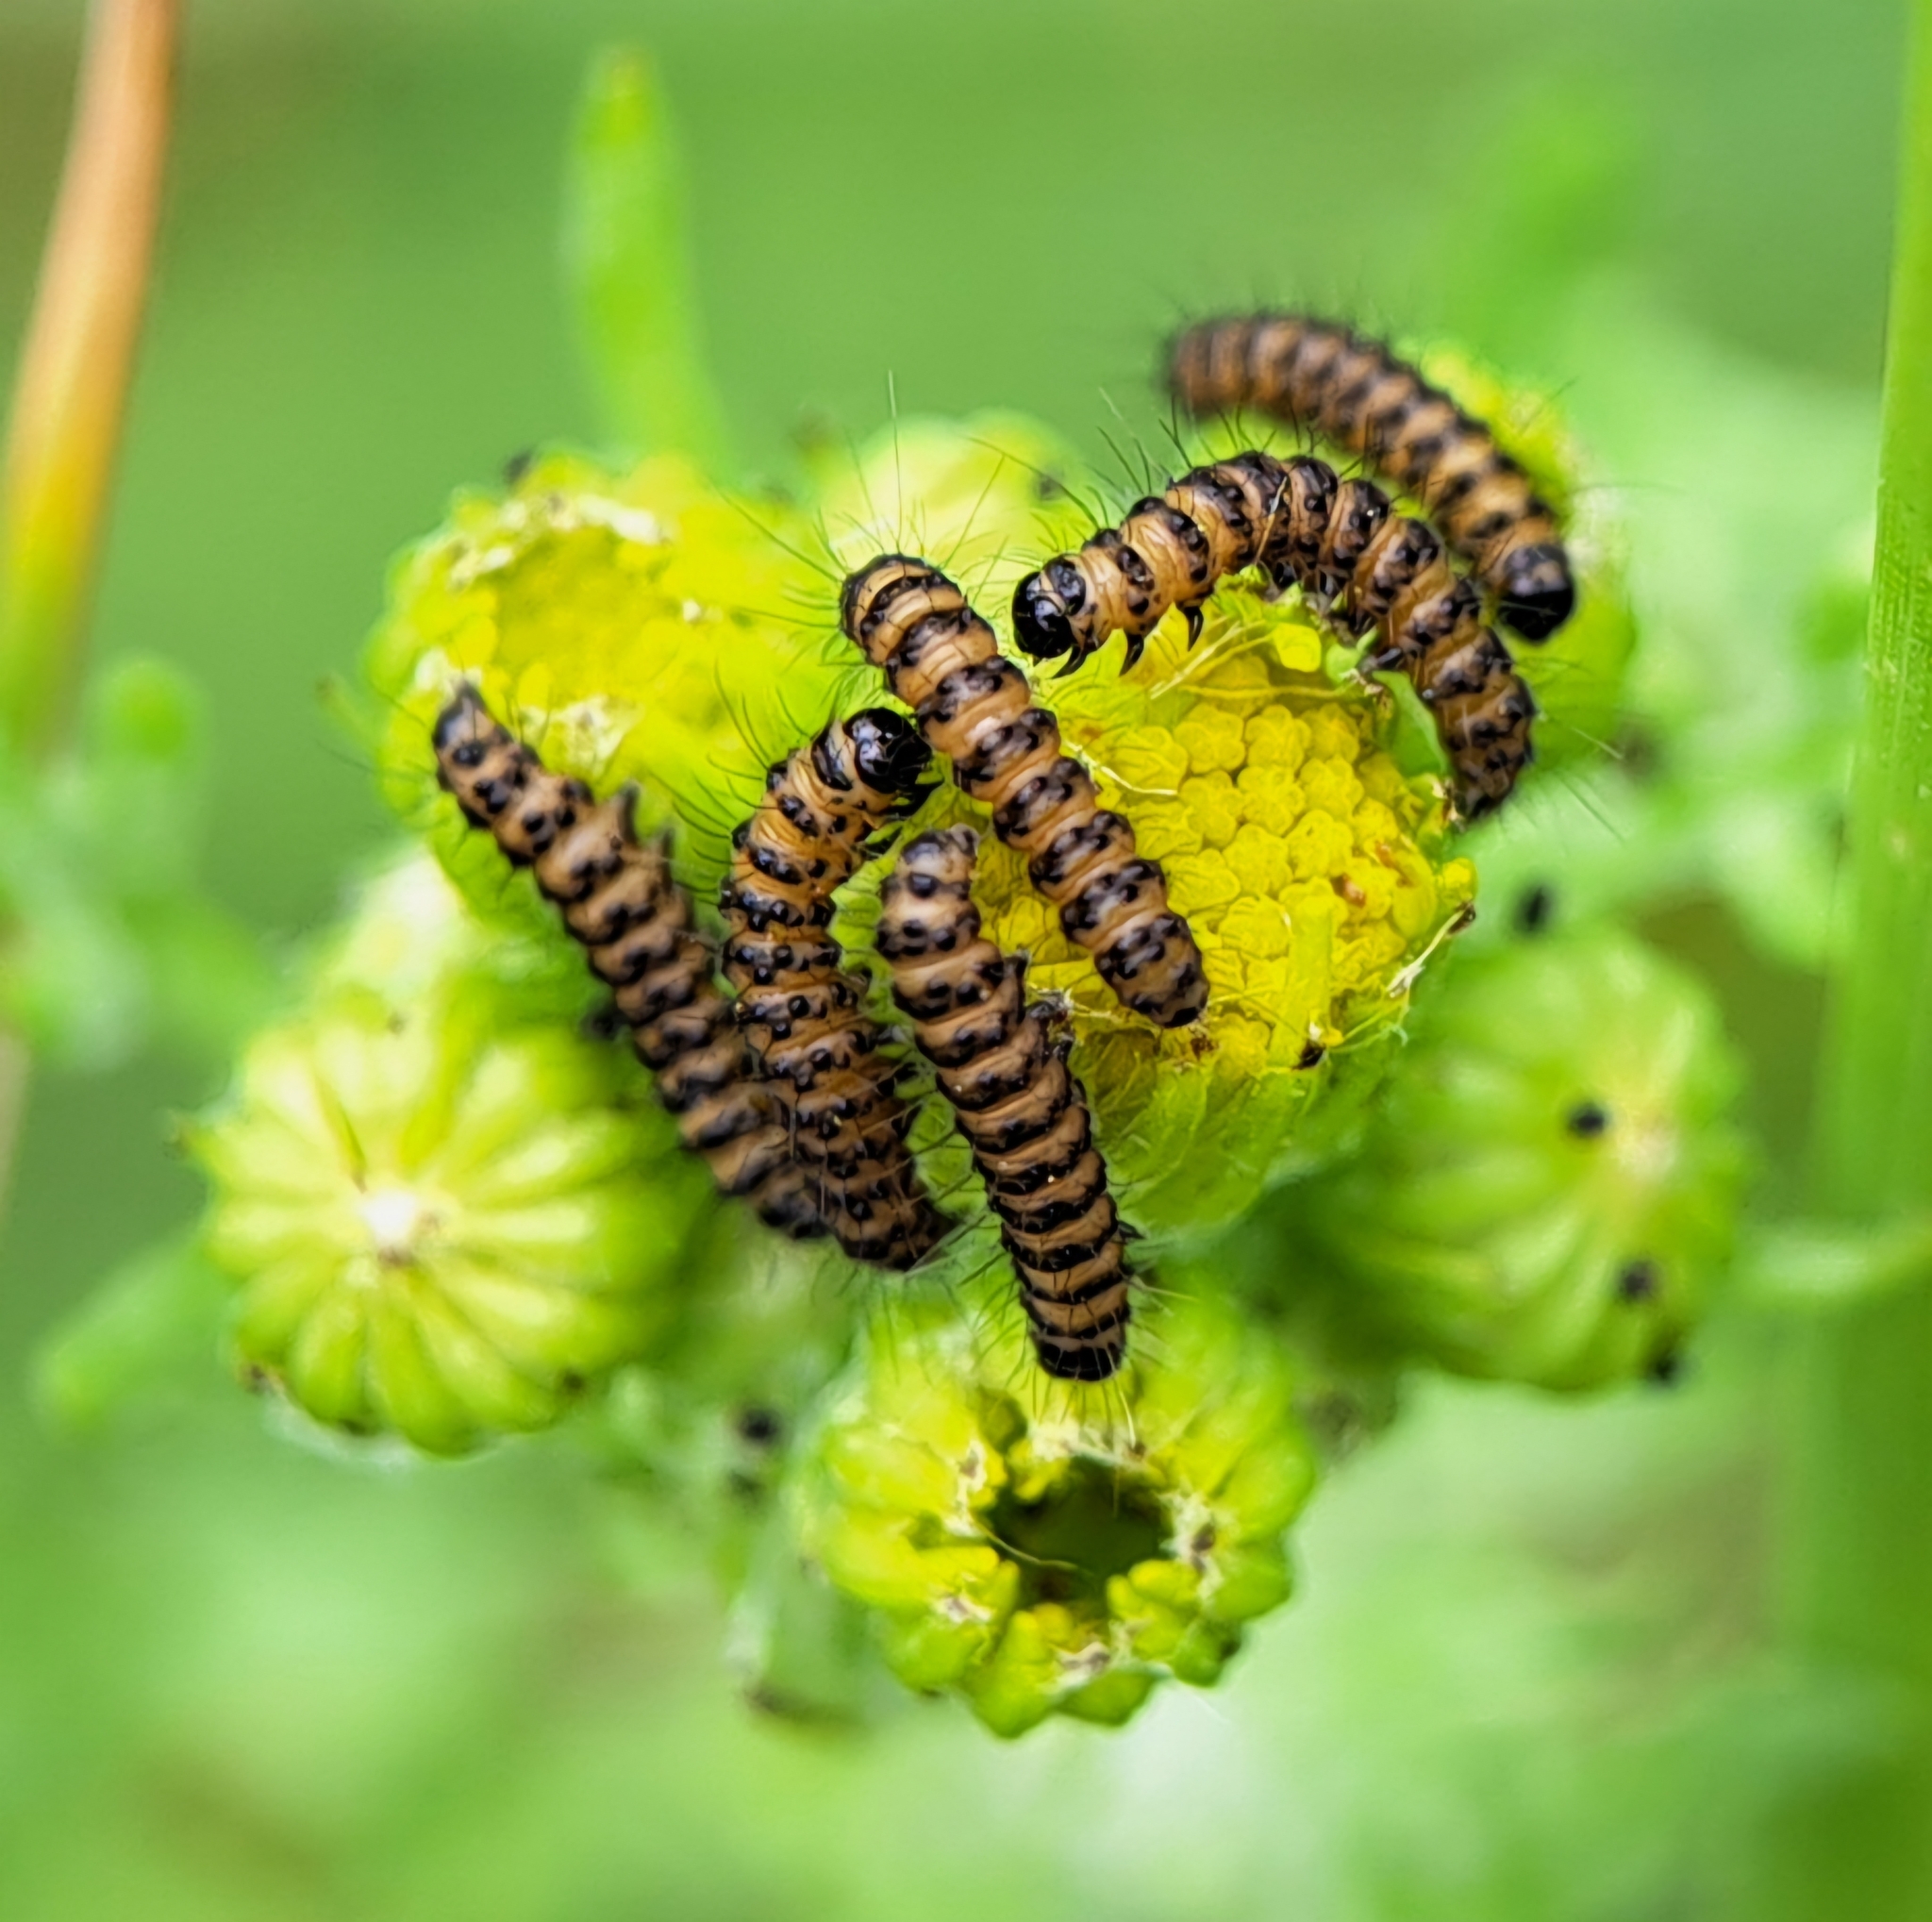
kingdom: Animalia
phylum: Arthropoda
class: Insecta
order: Lepidoptera
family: Erebidae
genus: Tyria
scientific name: Tyria jacobaeae
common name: Cinnabar
